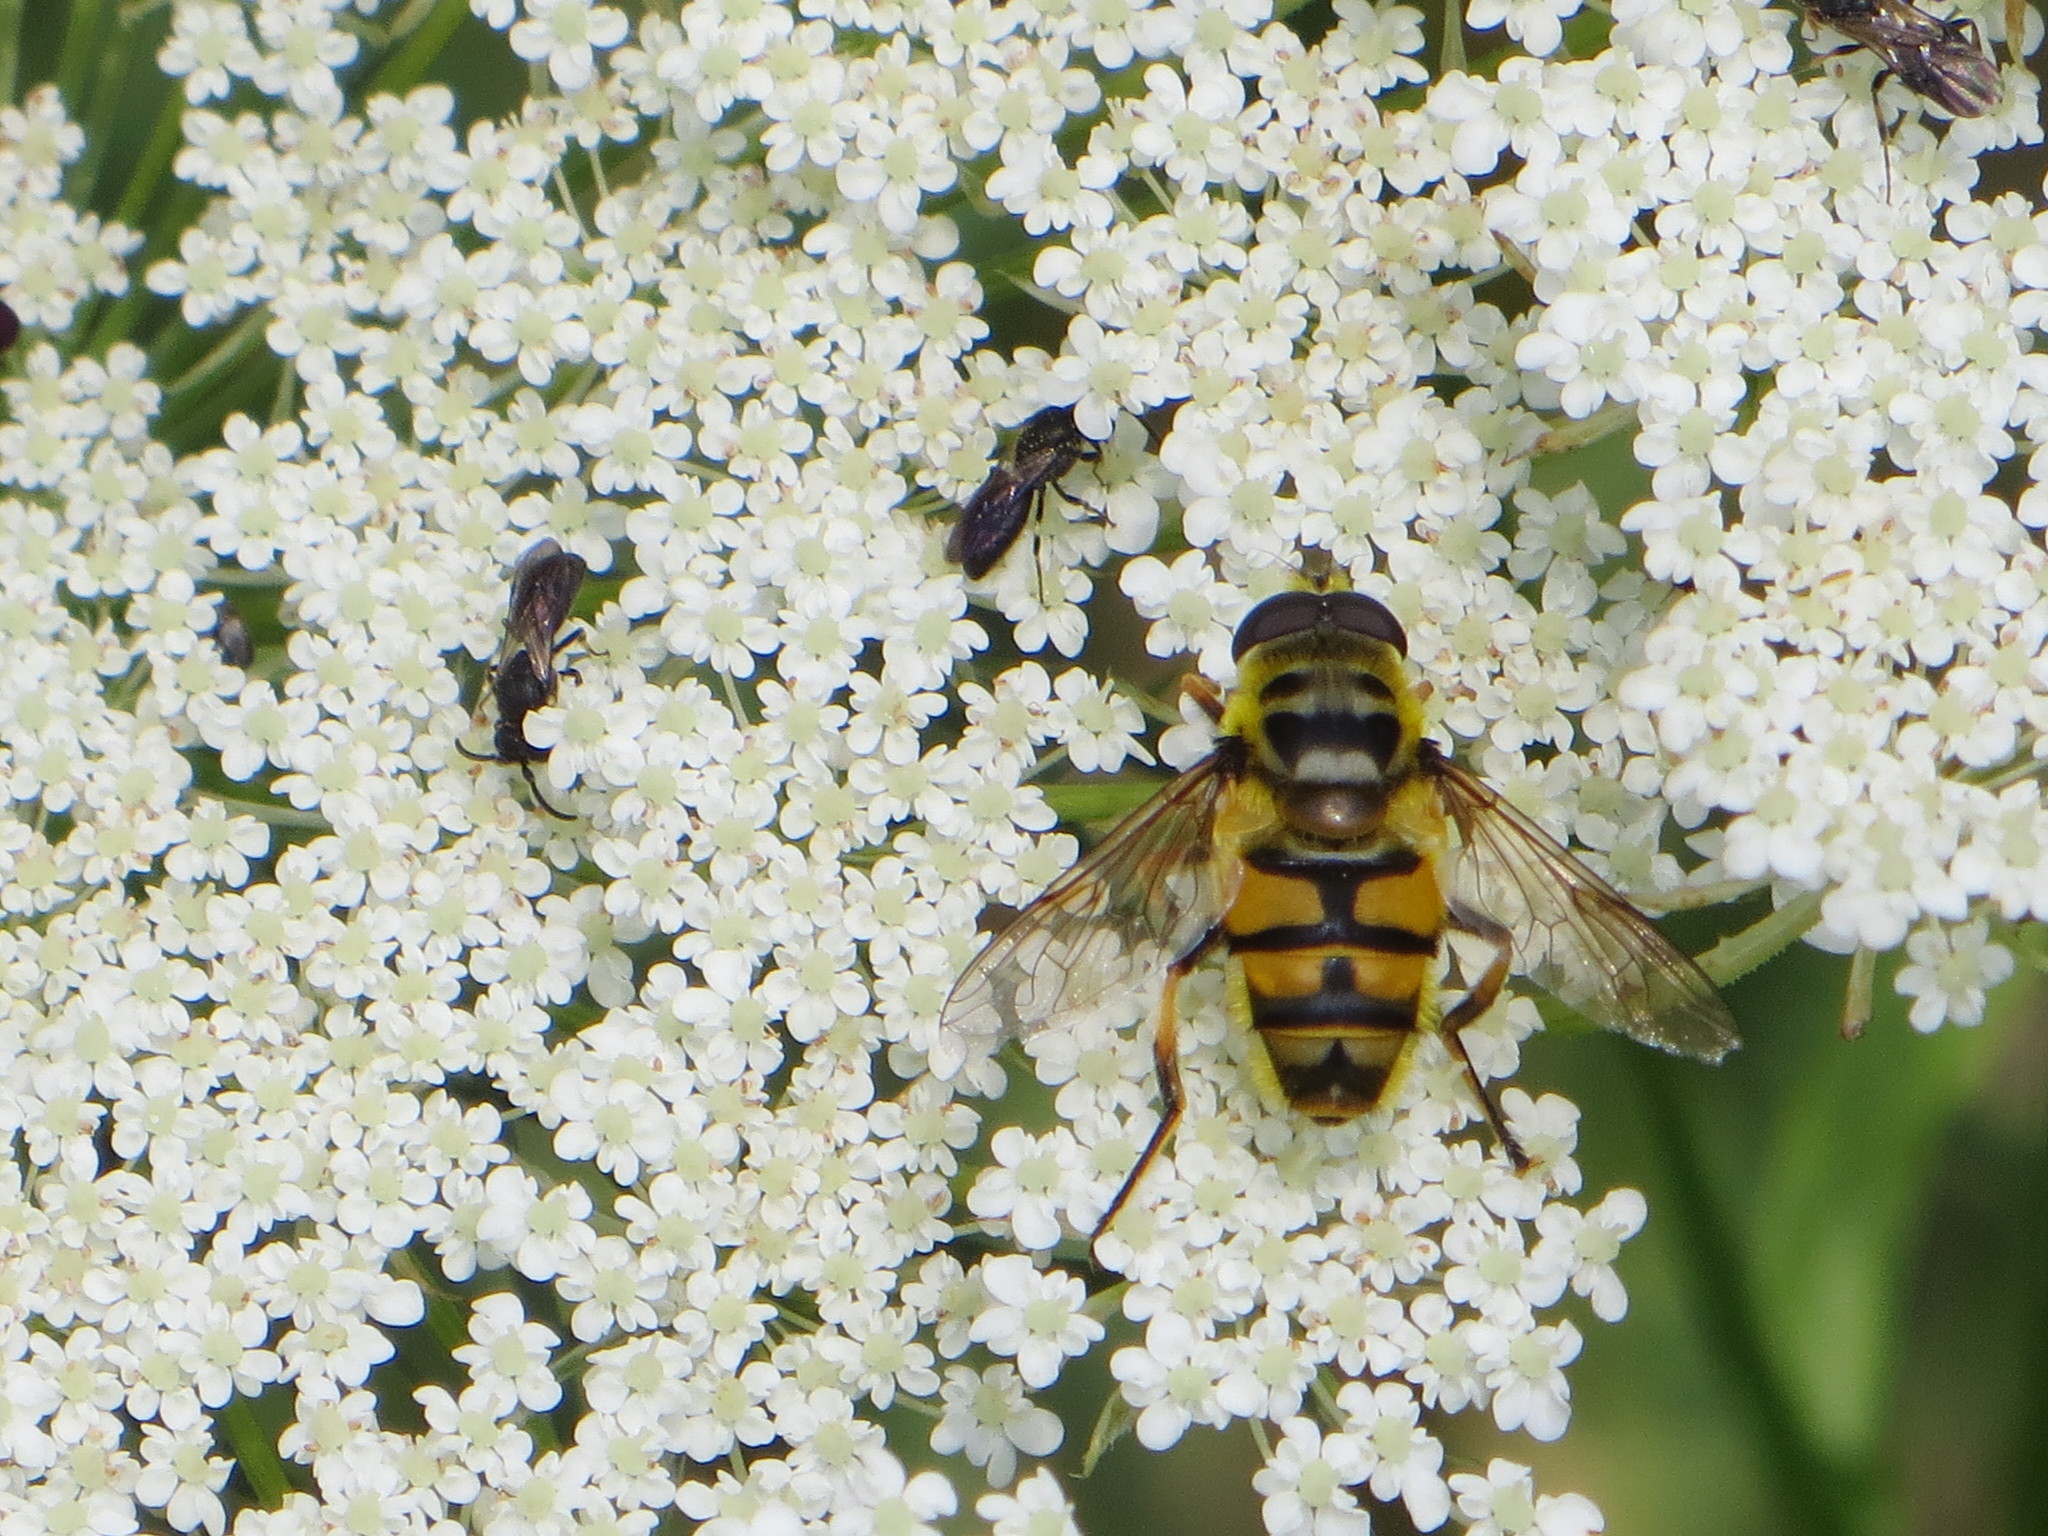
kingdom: Animalia
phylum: Arthropoda
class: Insecta
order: Diptera
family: Syrphidae
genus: Myathropa
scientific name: Myathropa florea
